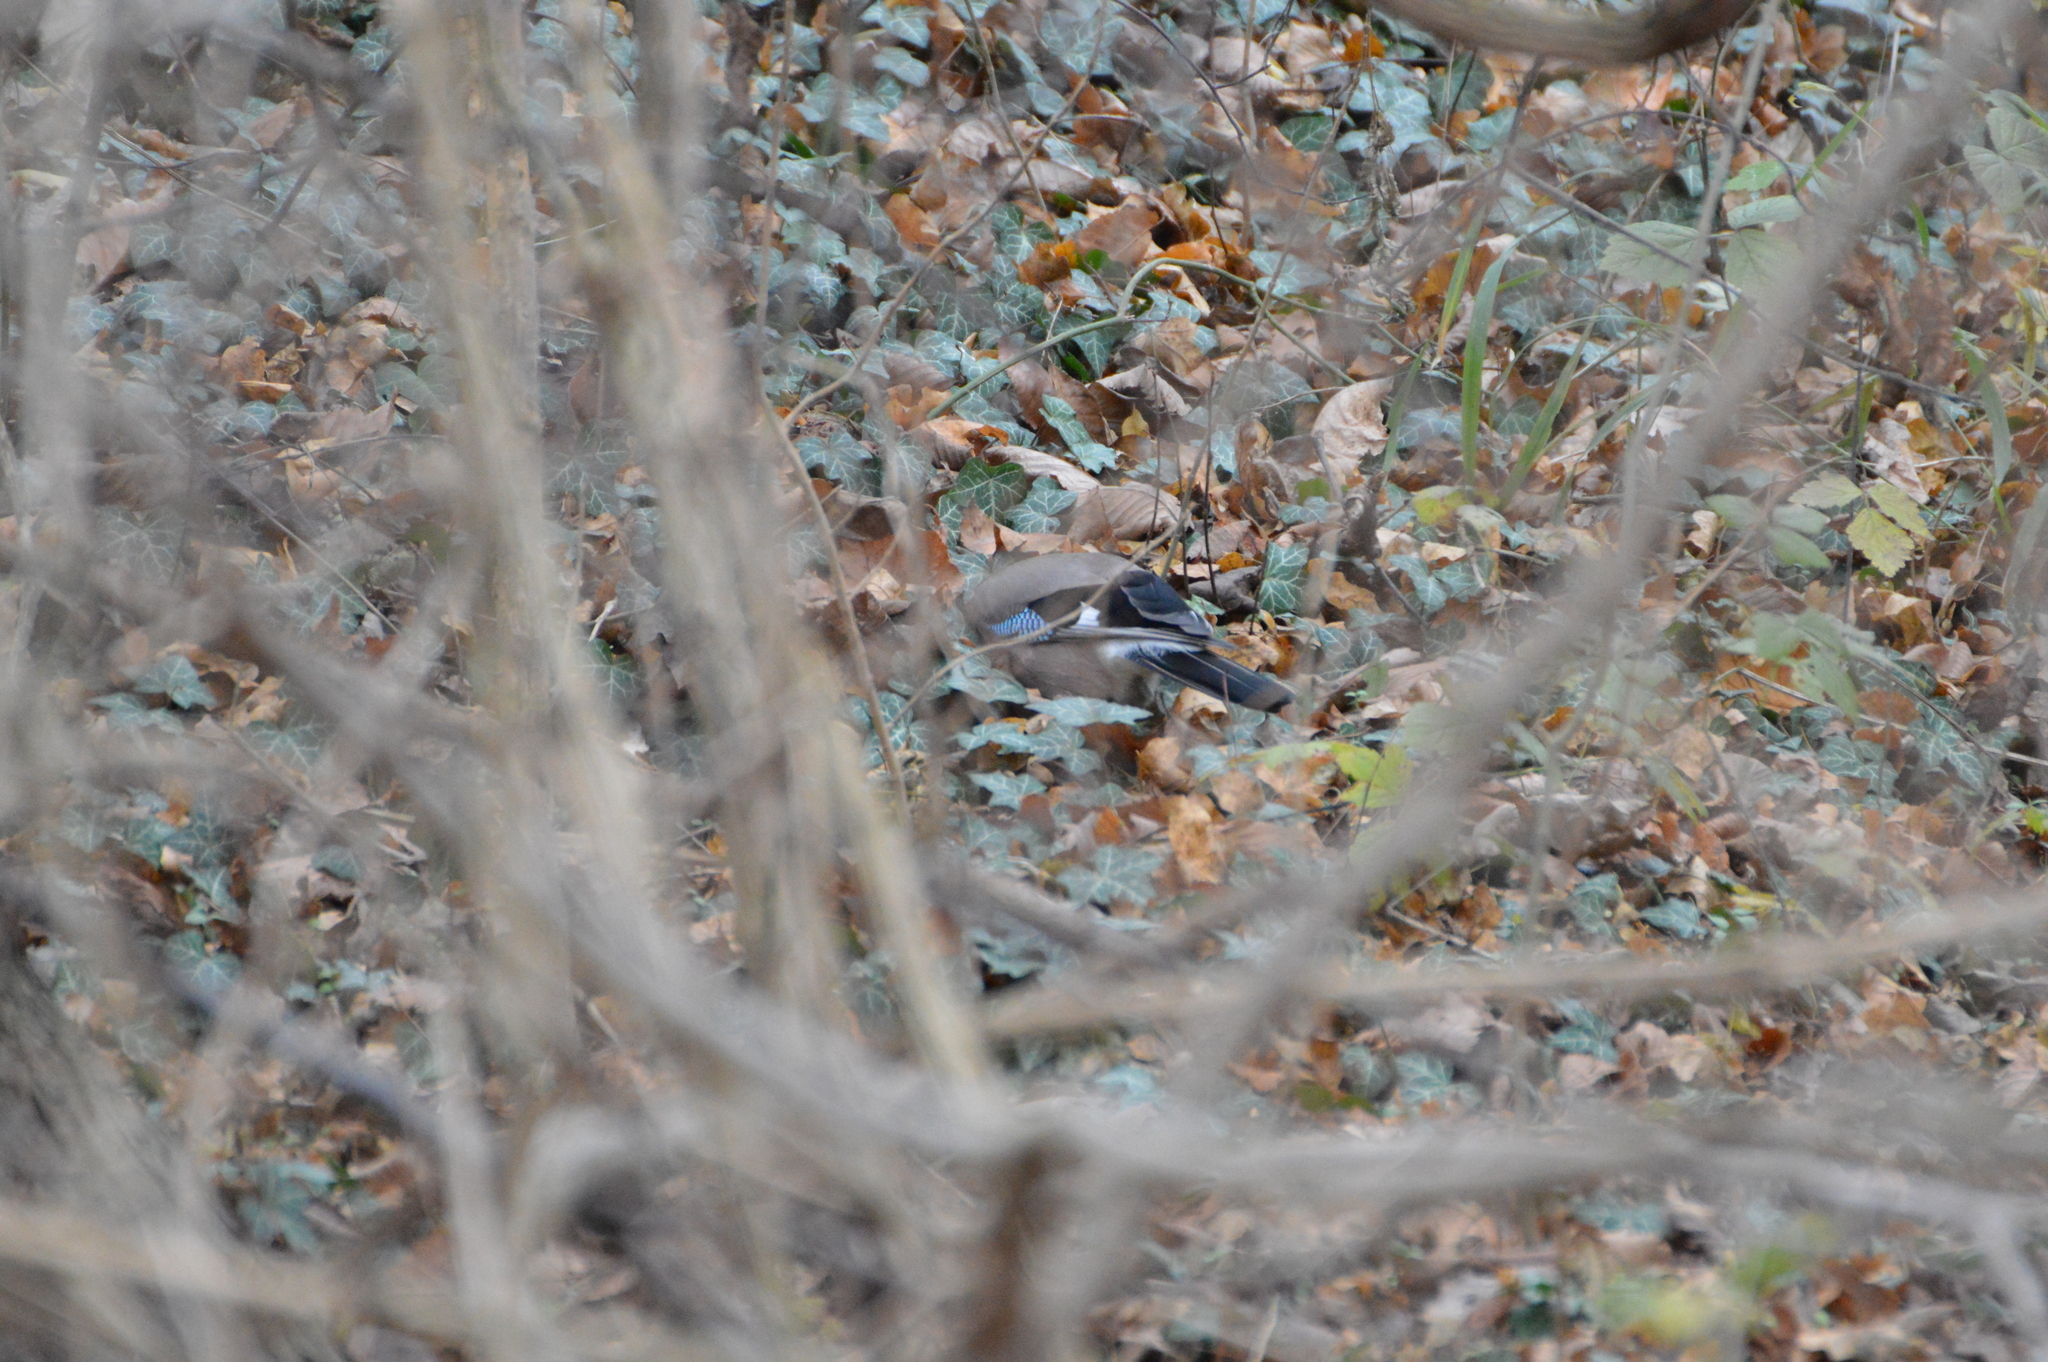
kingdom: Animalia
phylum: Chordata
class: Aves
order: Passeriformes
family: Corvidae
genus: Garrulus
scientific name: Garrulus glandarius
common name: Eurasian jay
